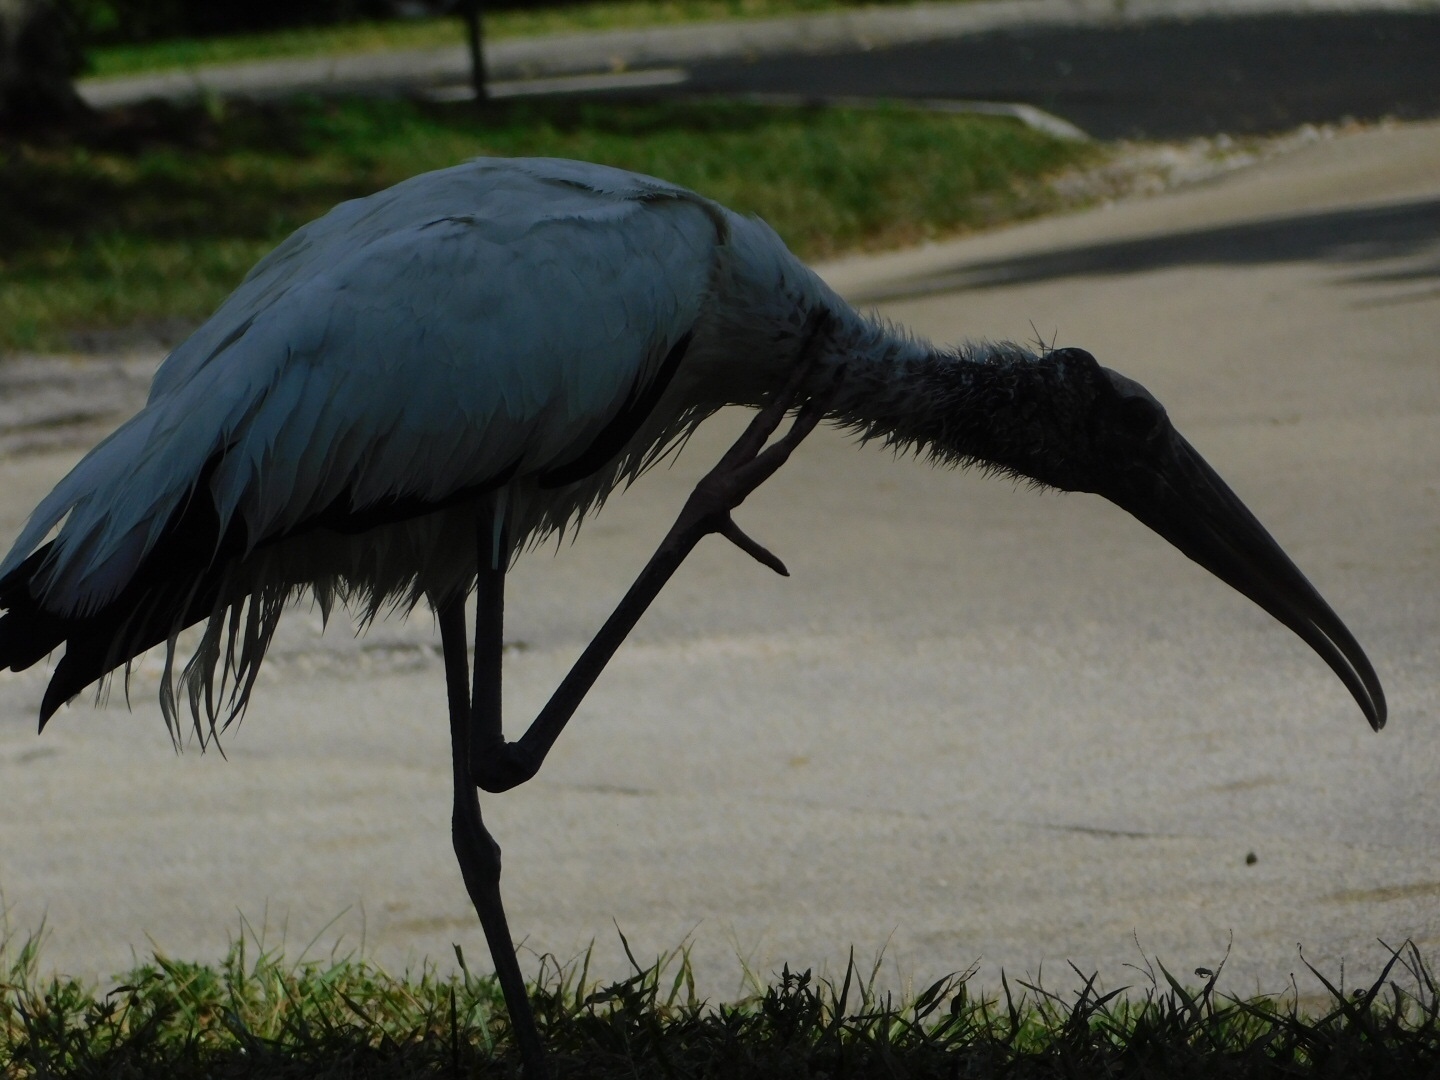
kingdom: Animalia
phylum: Chordata
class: Aves
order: Ciconiiformes
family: Ciconiidae
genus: Mycteria
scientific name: Mycteria americana
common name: Wood stork
